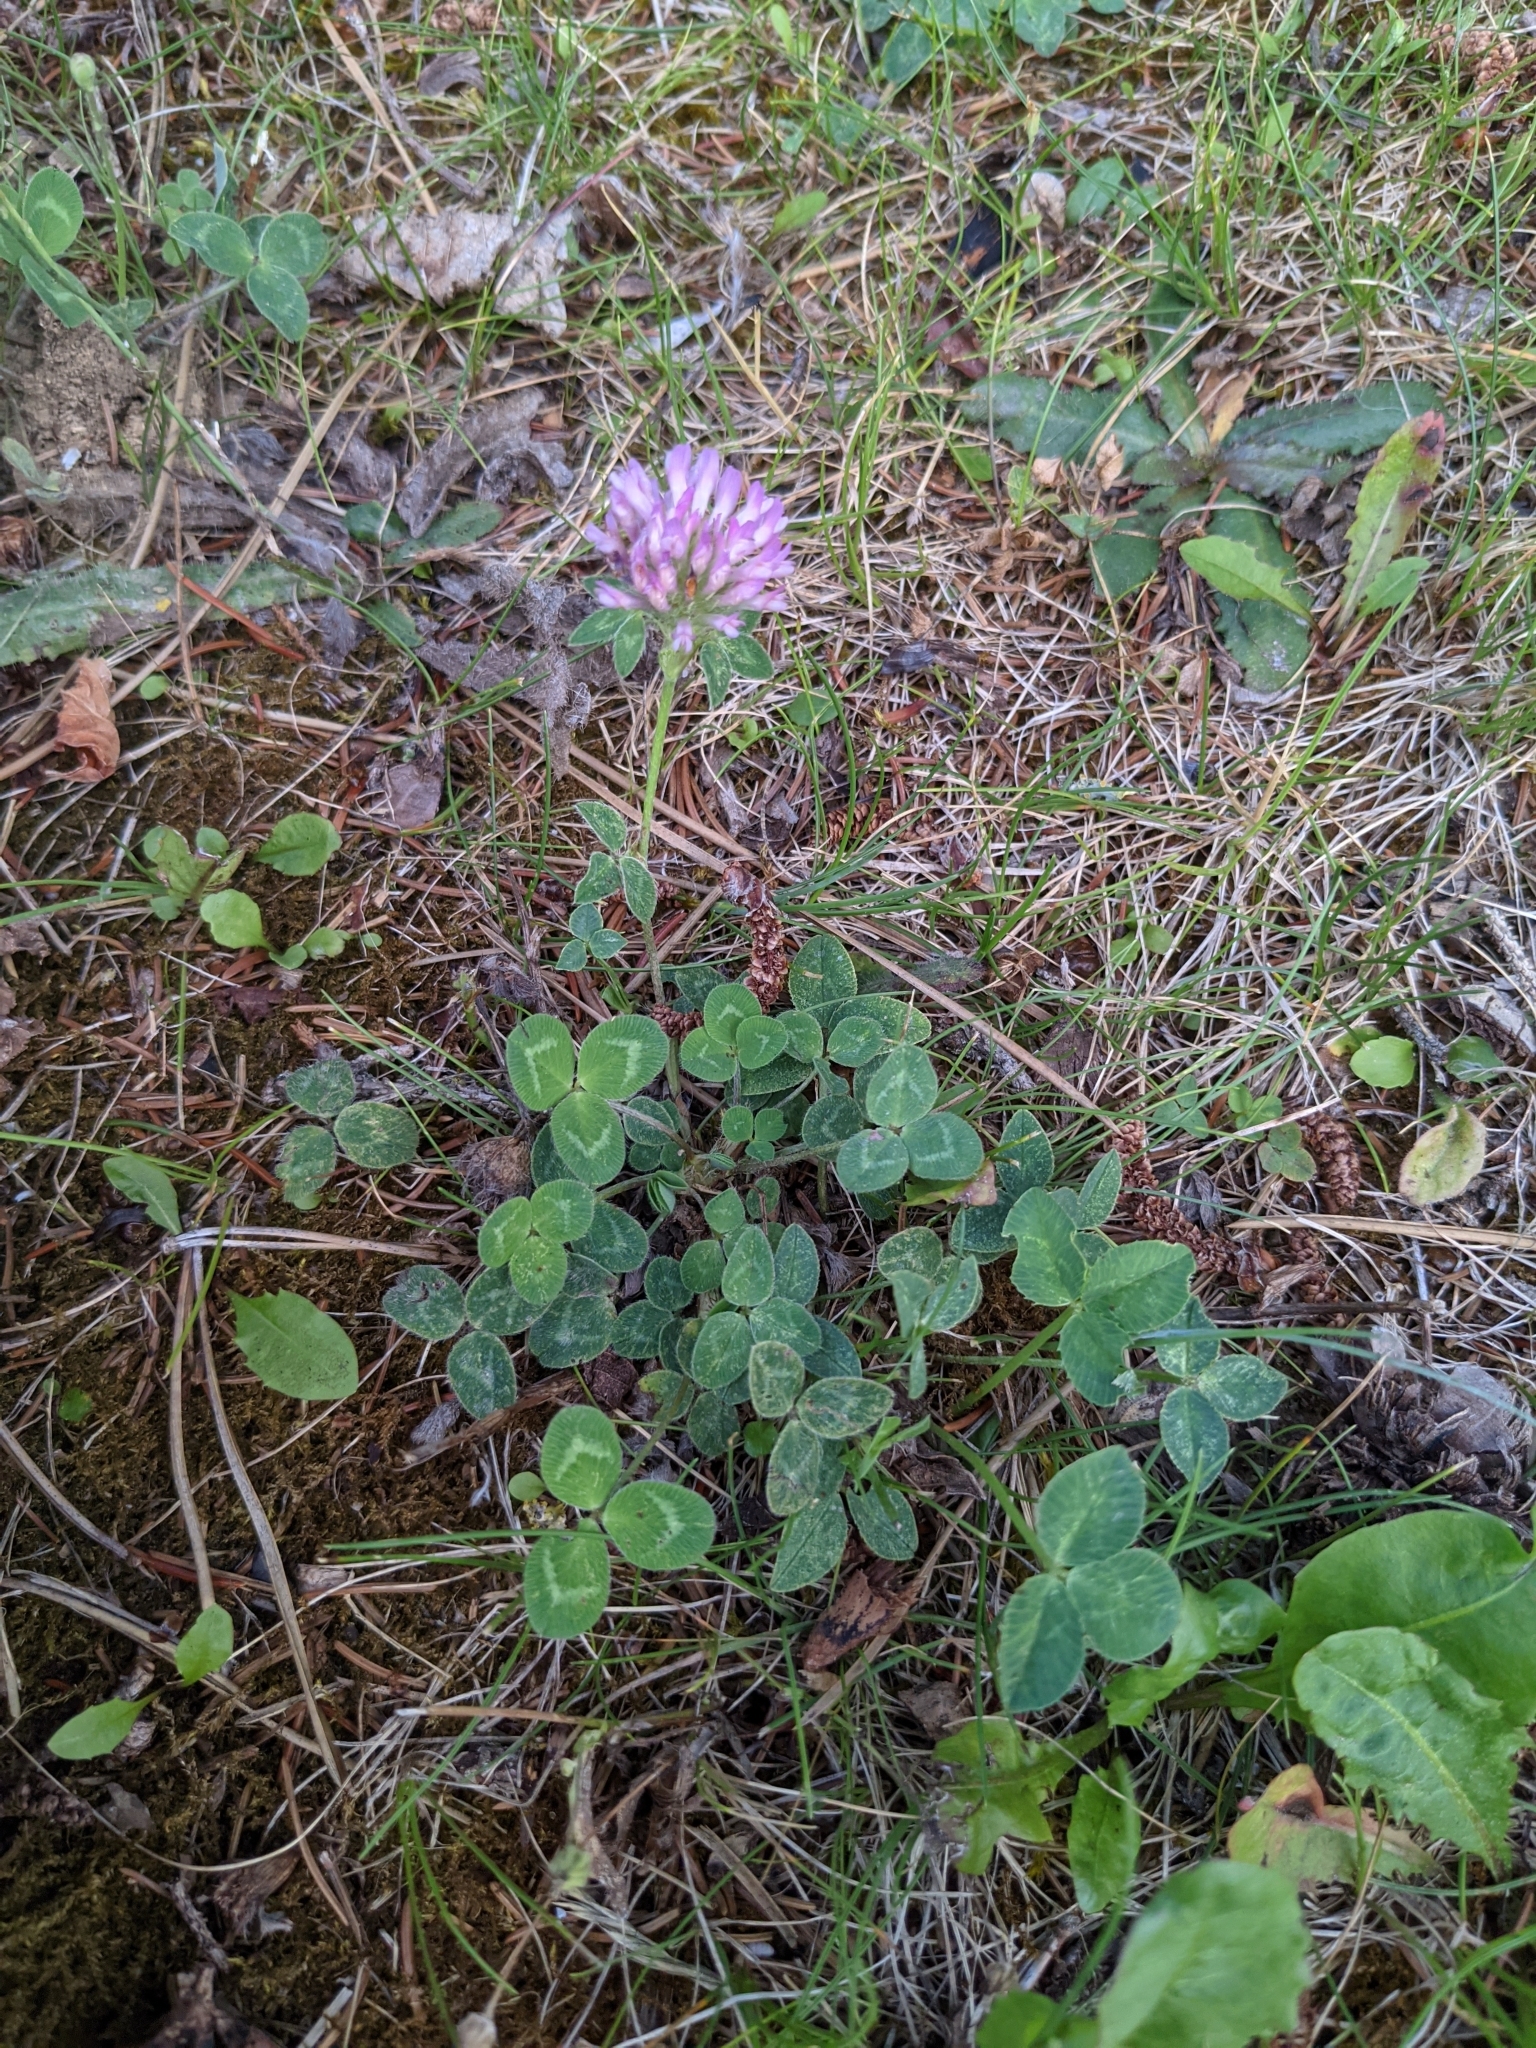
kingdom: Plantae
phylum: Tracheophyta
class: Magnoliopsida
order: Fabales
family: Fabaceae
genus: Trifolium
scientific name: Trifolium pratense
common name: Red clover
